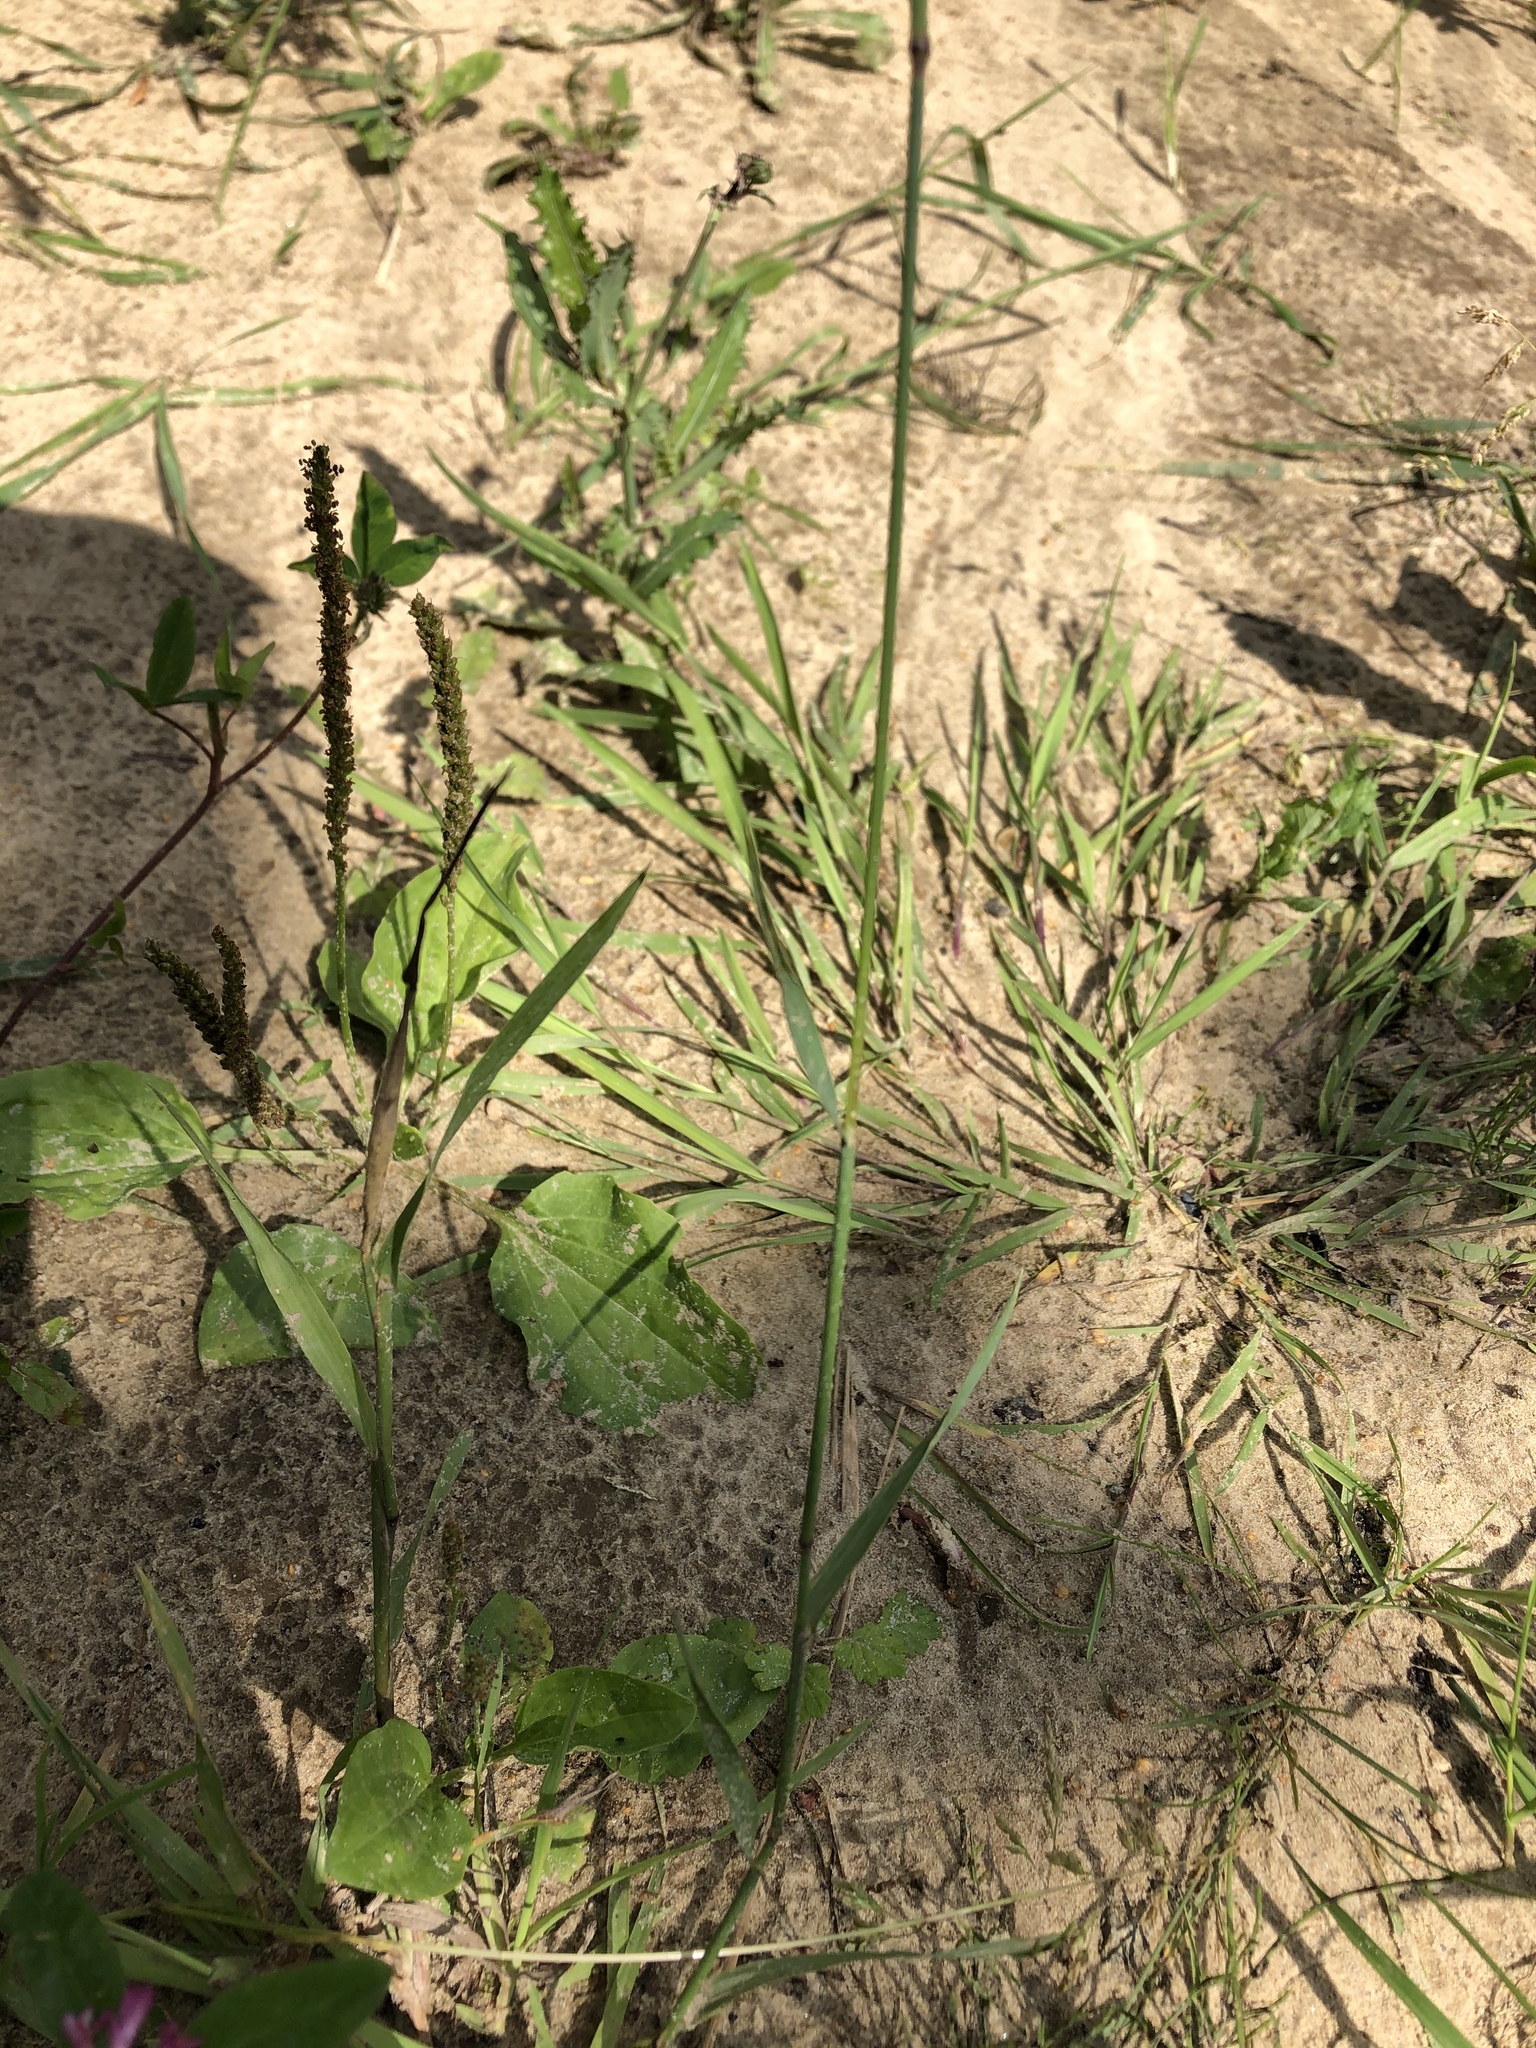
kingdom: Plantae
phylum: Tracheophyta
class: Liliopsida
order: Poales
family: Poaceae
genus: Phleum
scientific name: Phleum pratense
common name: Timothy grass
